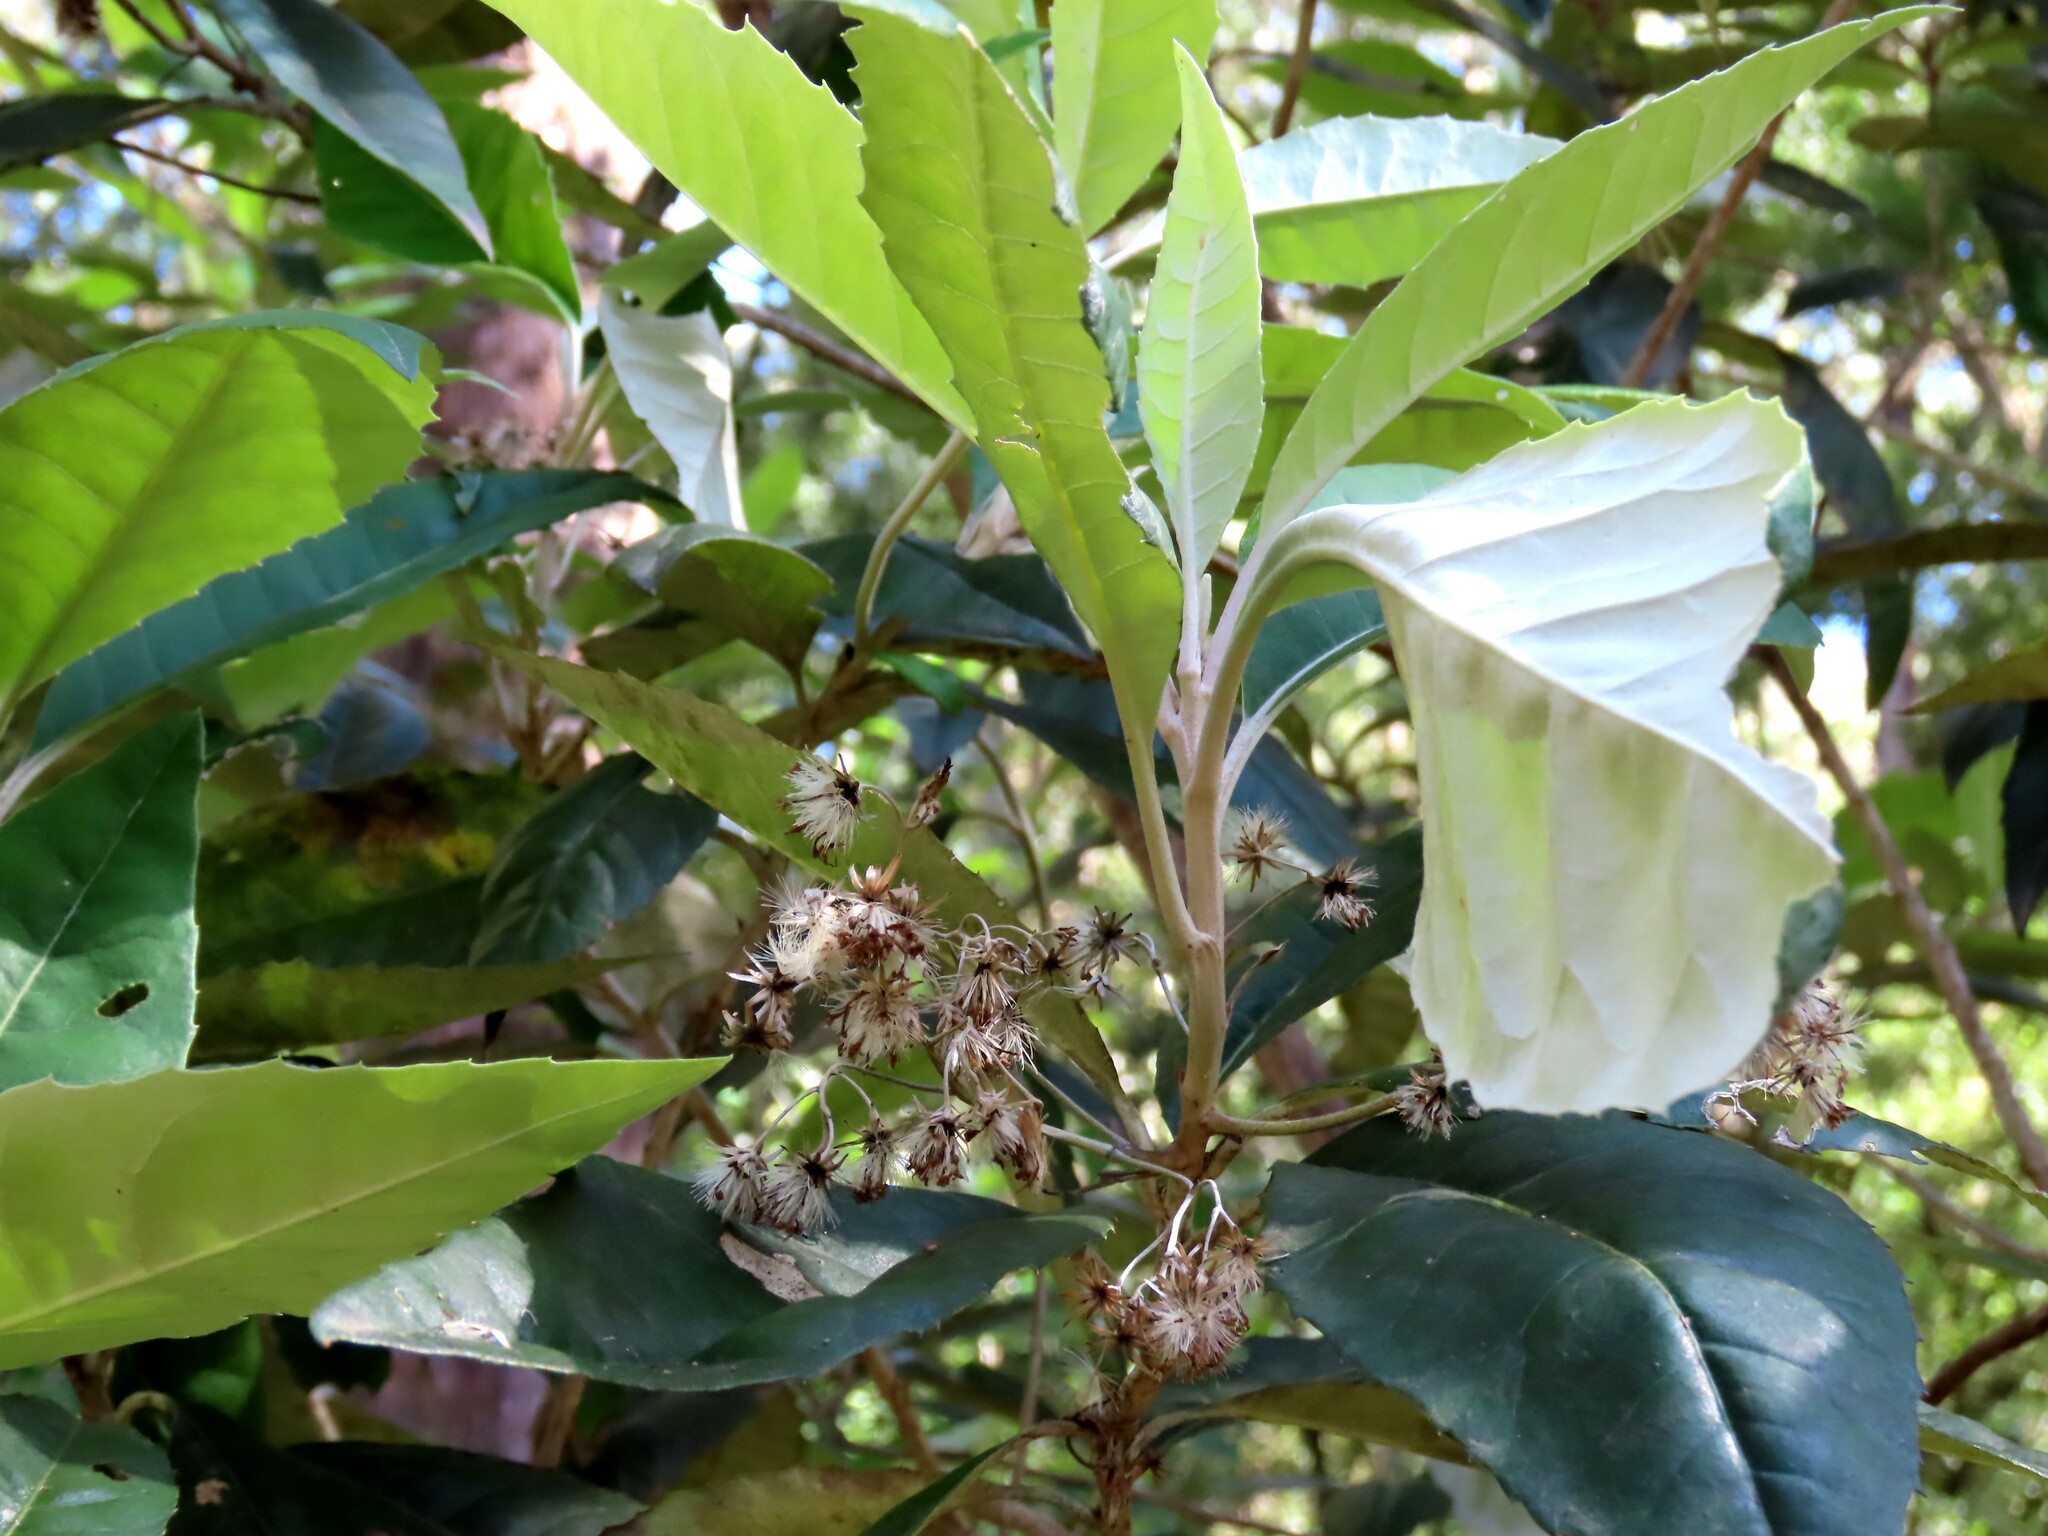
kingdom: Plantae
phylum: Tracheophyta
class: Magnoliopsida
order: Asterales
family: Asteraceae
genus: Olearia
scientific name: Olearia argophylla
